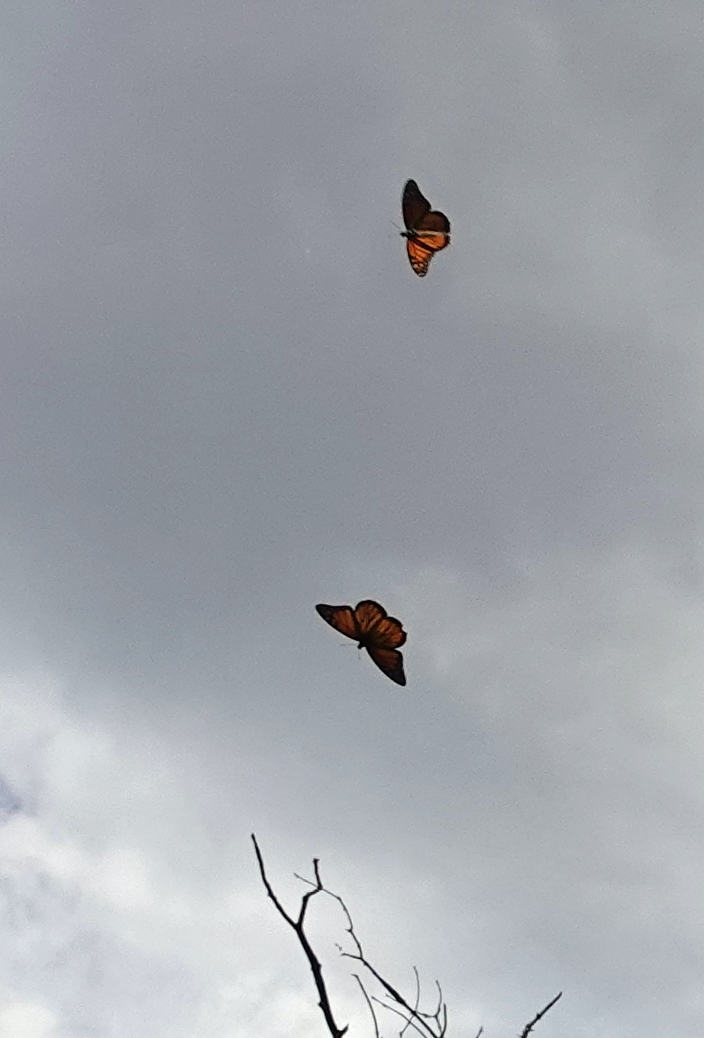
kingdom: Animalia
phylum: Arthropoda
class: Insecta
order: Lepidoptera
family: Nymphalidae
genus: Danaus
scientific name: Danaus plexippus
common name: Monarch
